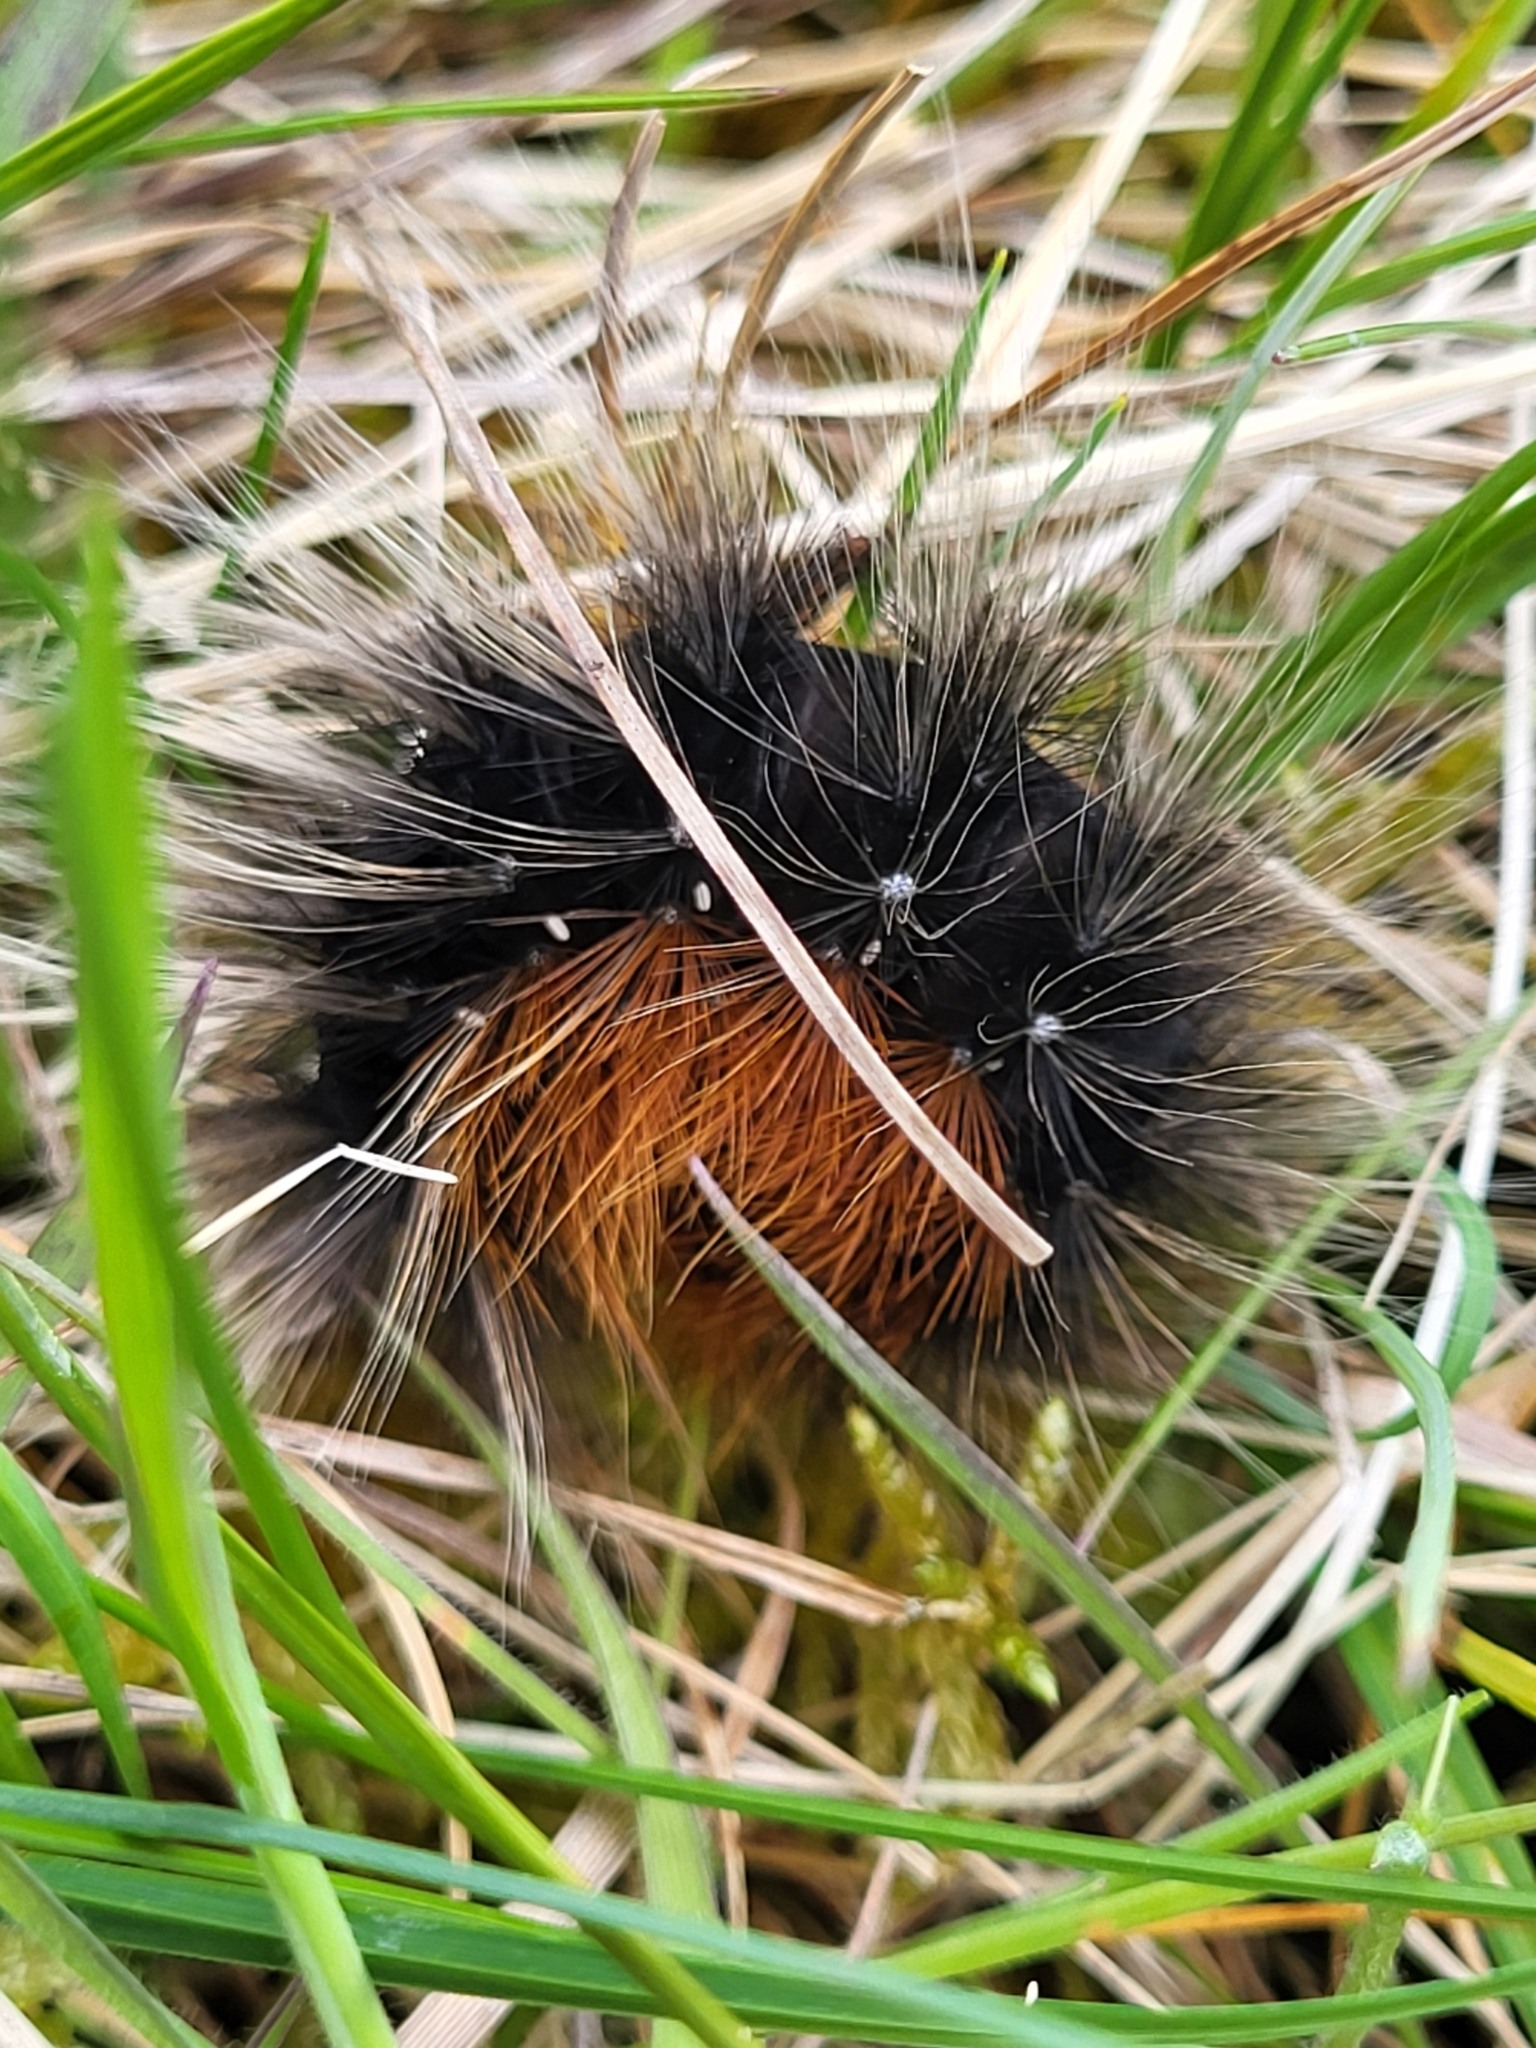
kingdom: Animalia
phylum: Arthropoda
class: Insecta
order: Lepidoptera
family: Erebidae
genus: Arctia
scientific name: Arctia caja
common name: Garden tiger
